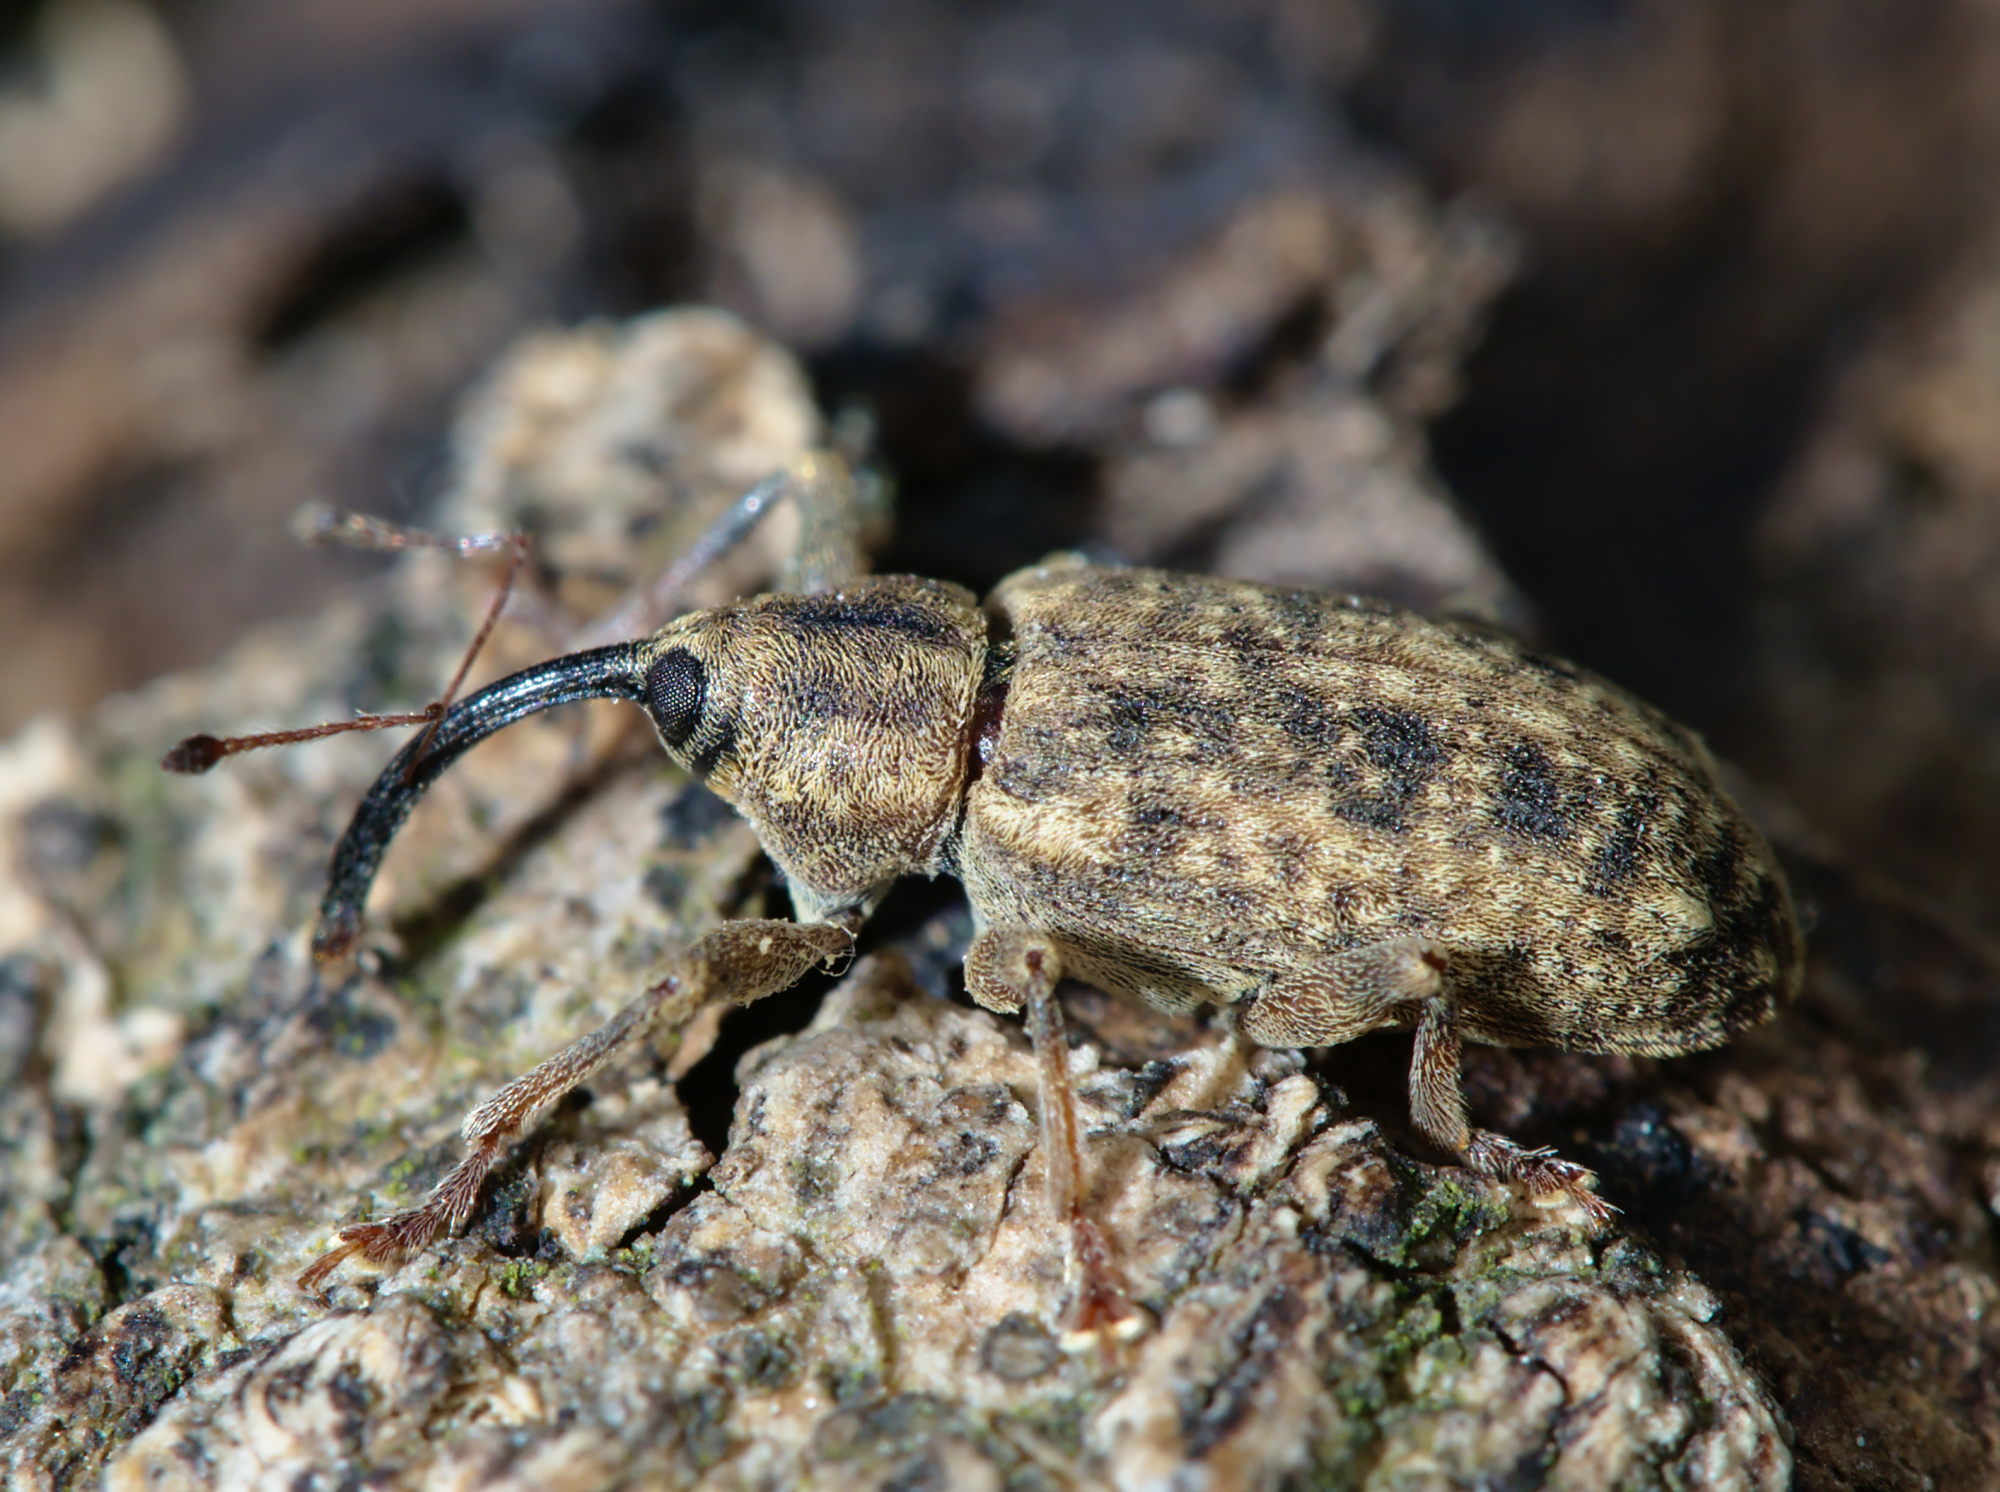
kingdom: Animalia
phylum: Arthropoda
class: Insecta
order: Coleoptera
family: Curculionidae
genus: Dorytomus
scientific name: Dorytomus longimanus
